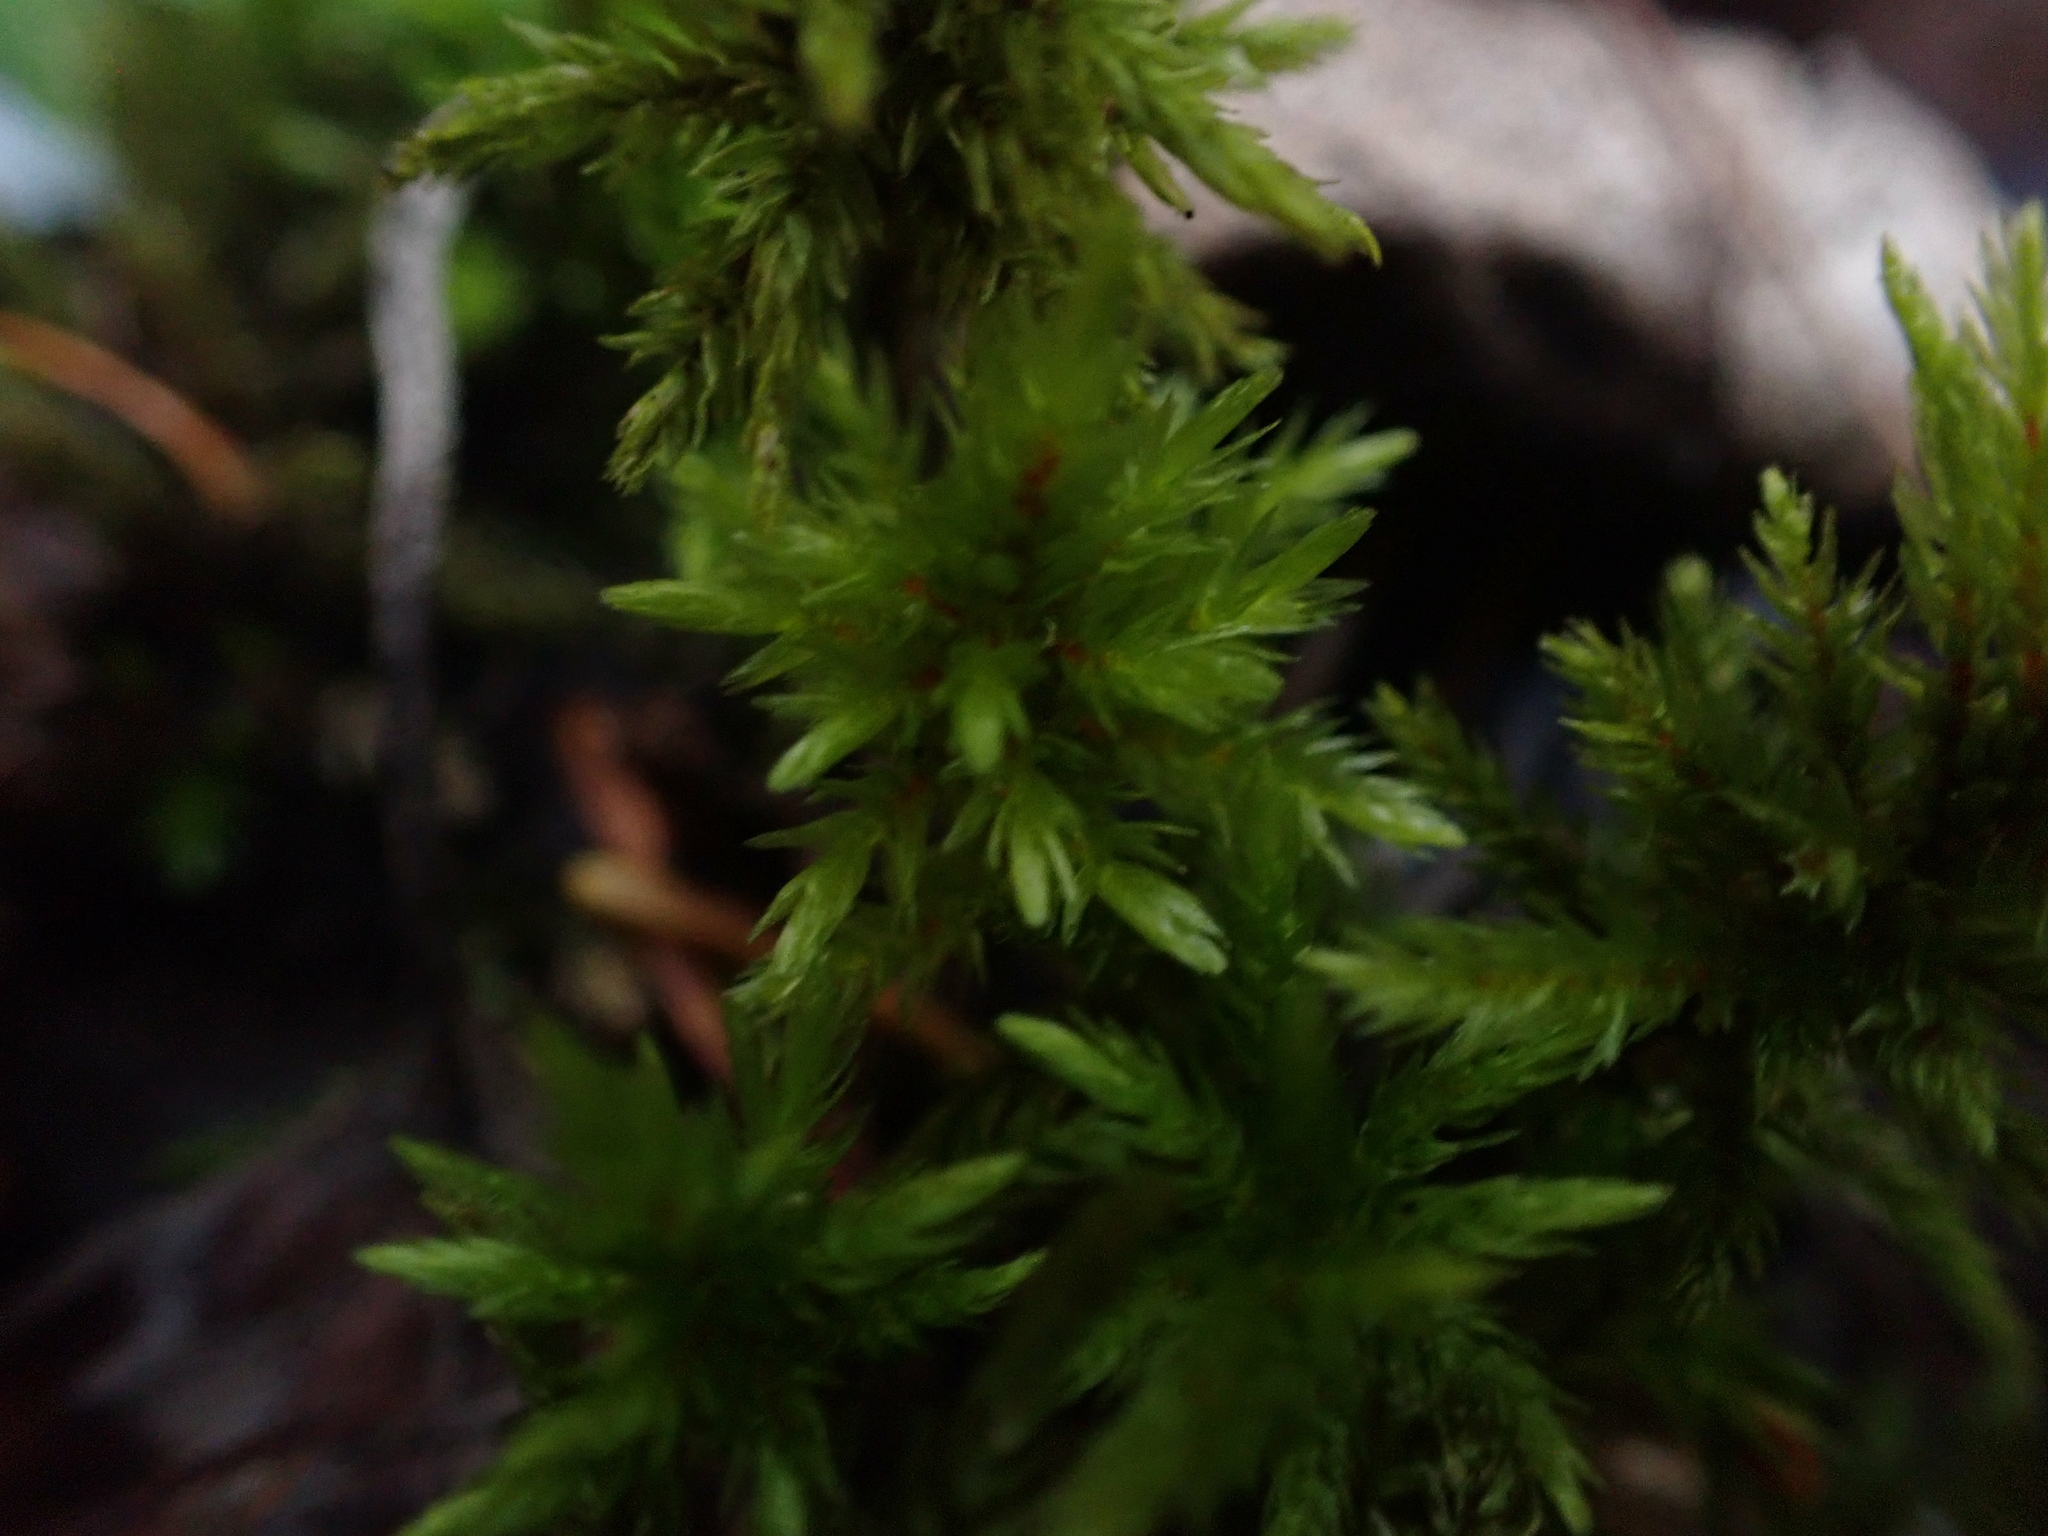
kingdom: Plantae
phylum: Bryophyta
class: Bryopsida
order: Hypnales
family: Climaciaceae
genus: Climacium
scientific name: Climacium dendroides
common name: Northern tree moss
